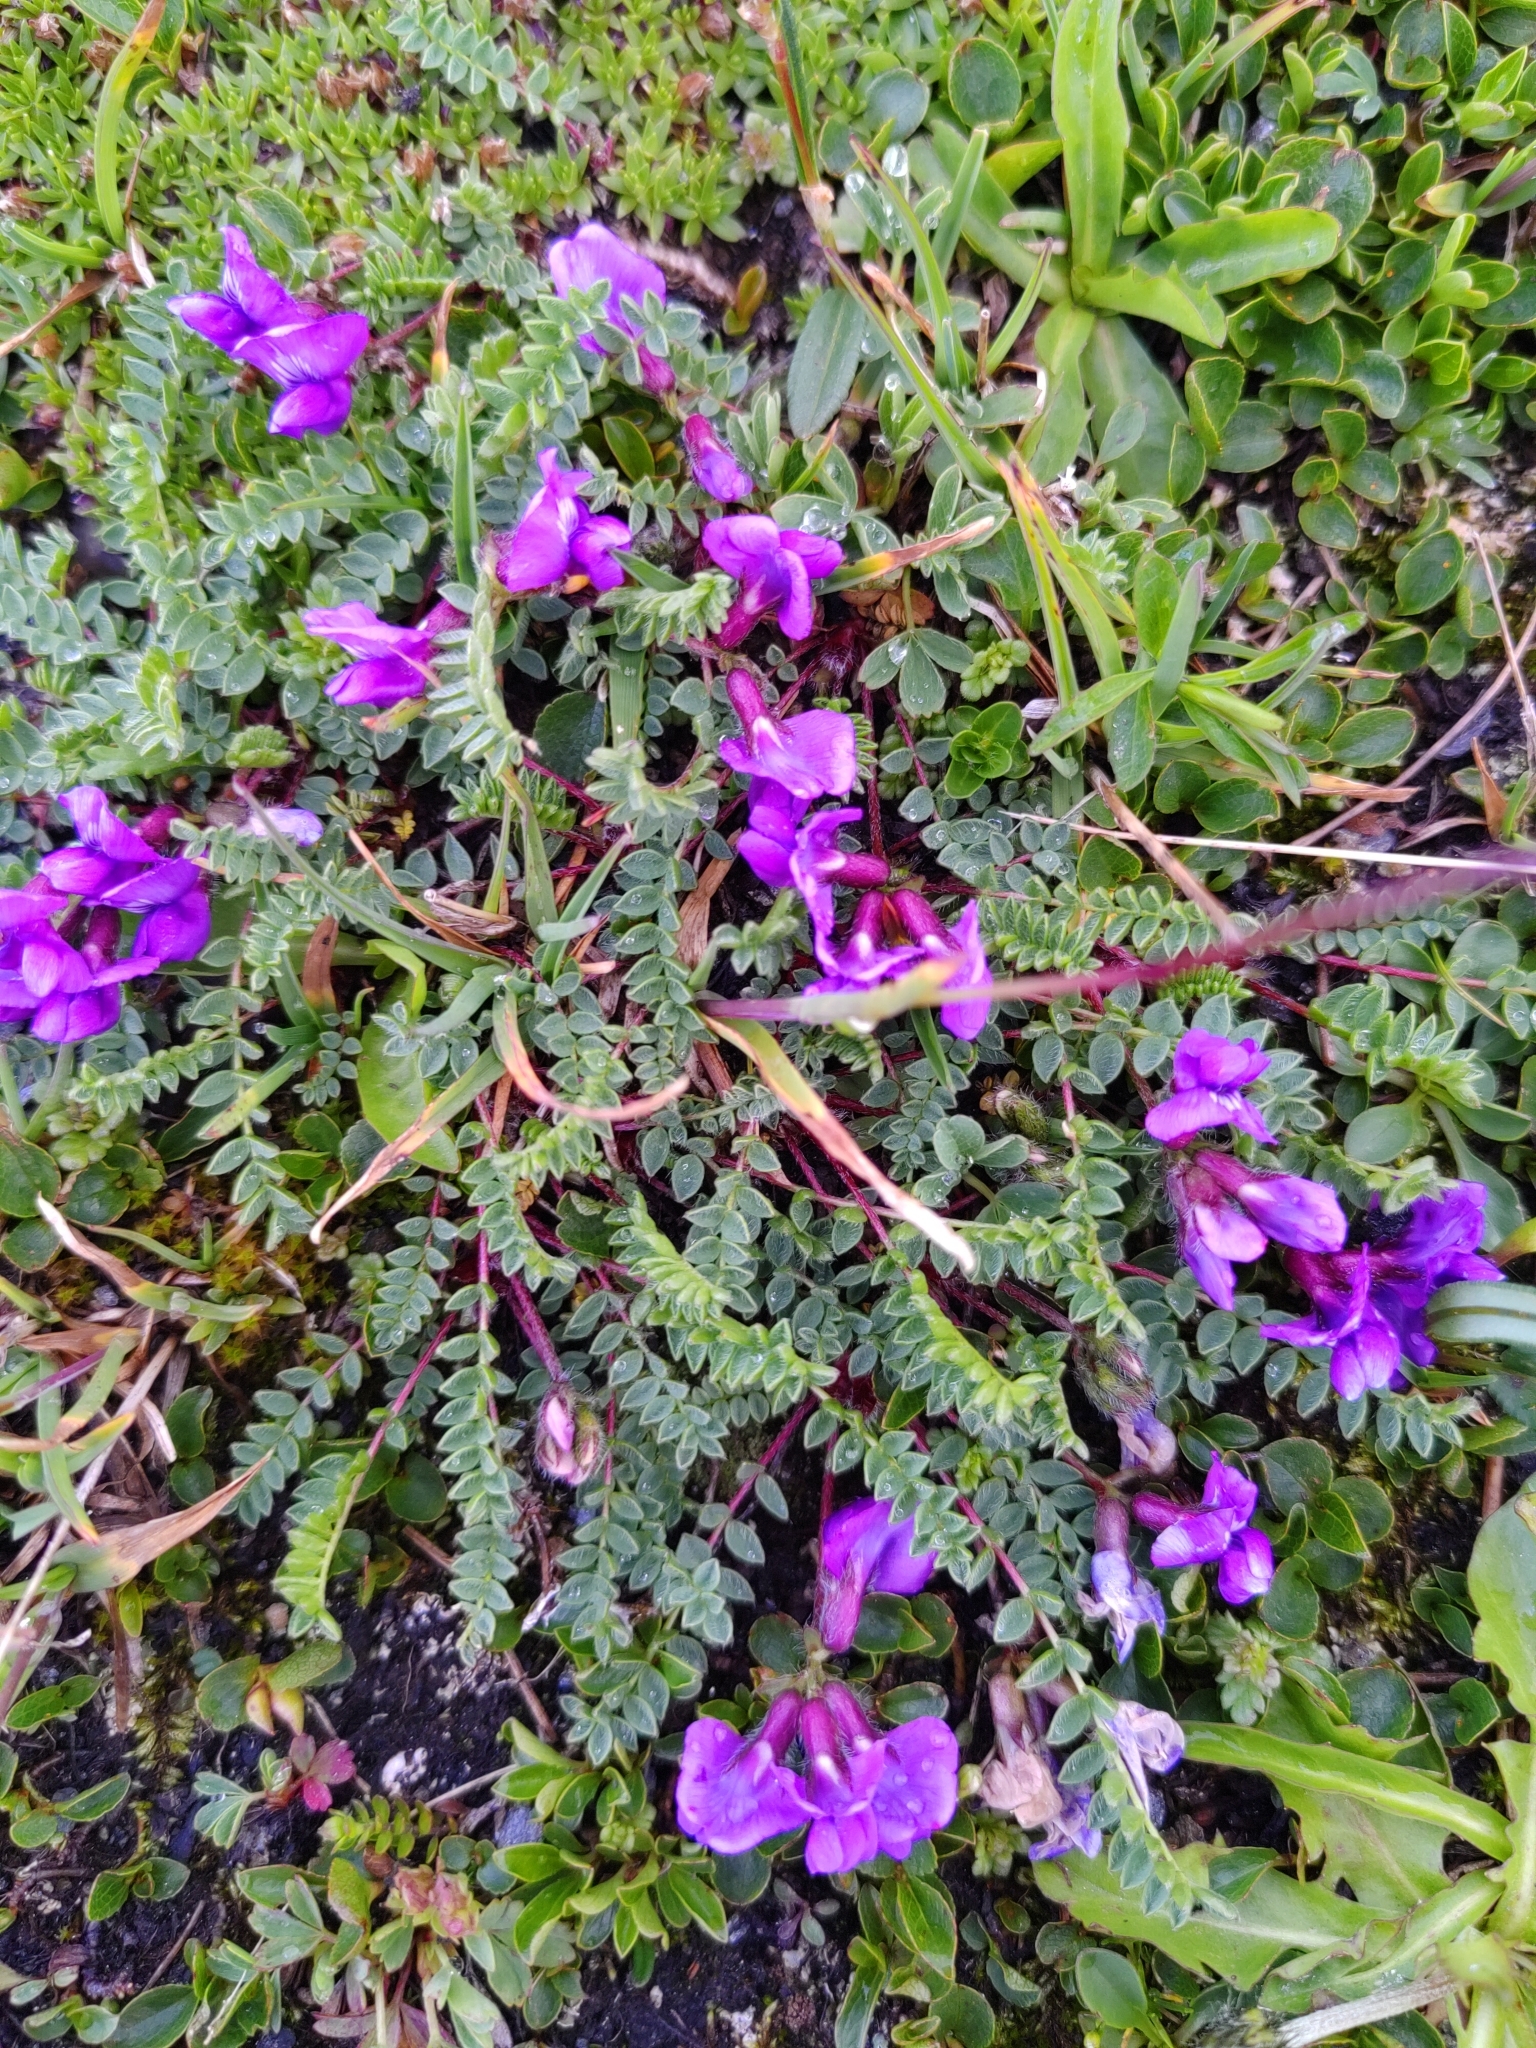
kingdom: Plantae
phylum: Tracheophyta
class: Magnoliopsida
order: Fabales
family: Fabaceae
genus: Oxytropis
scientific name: Oxytropis triflora
